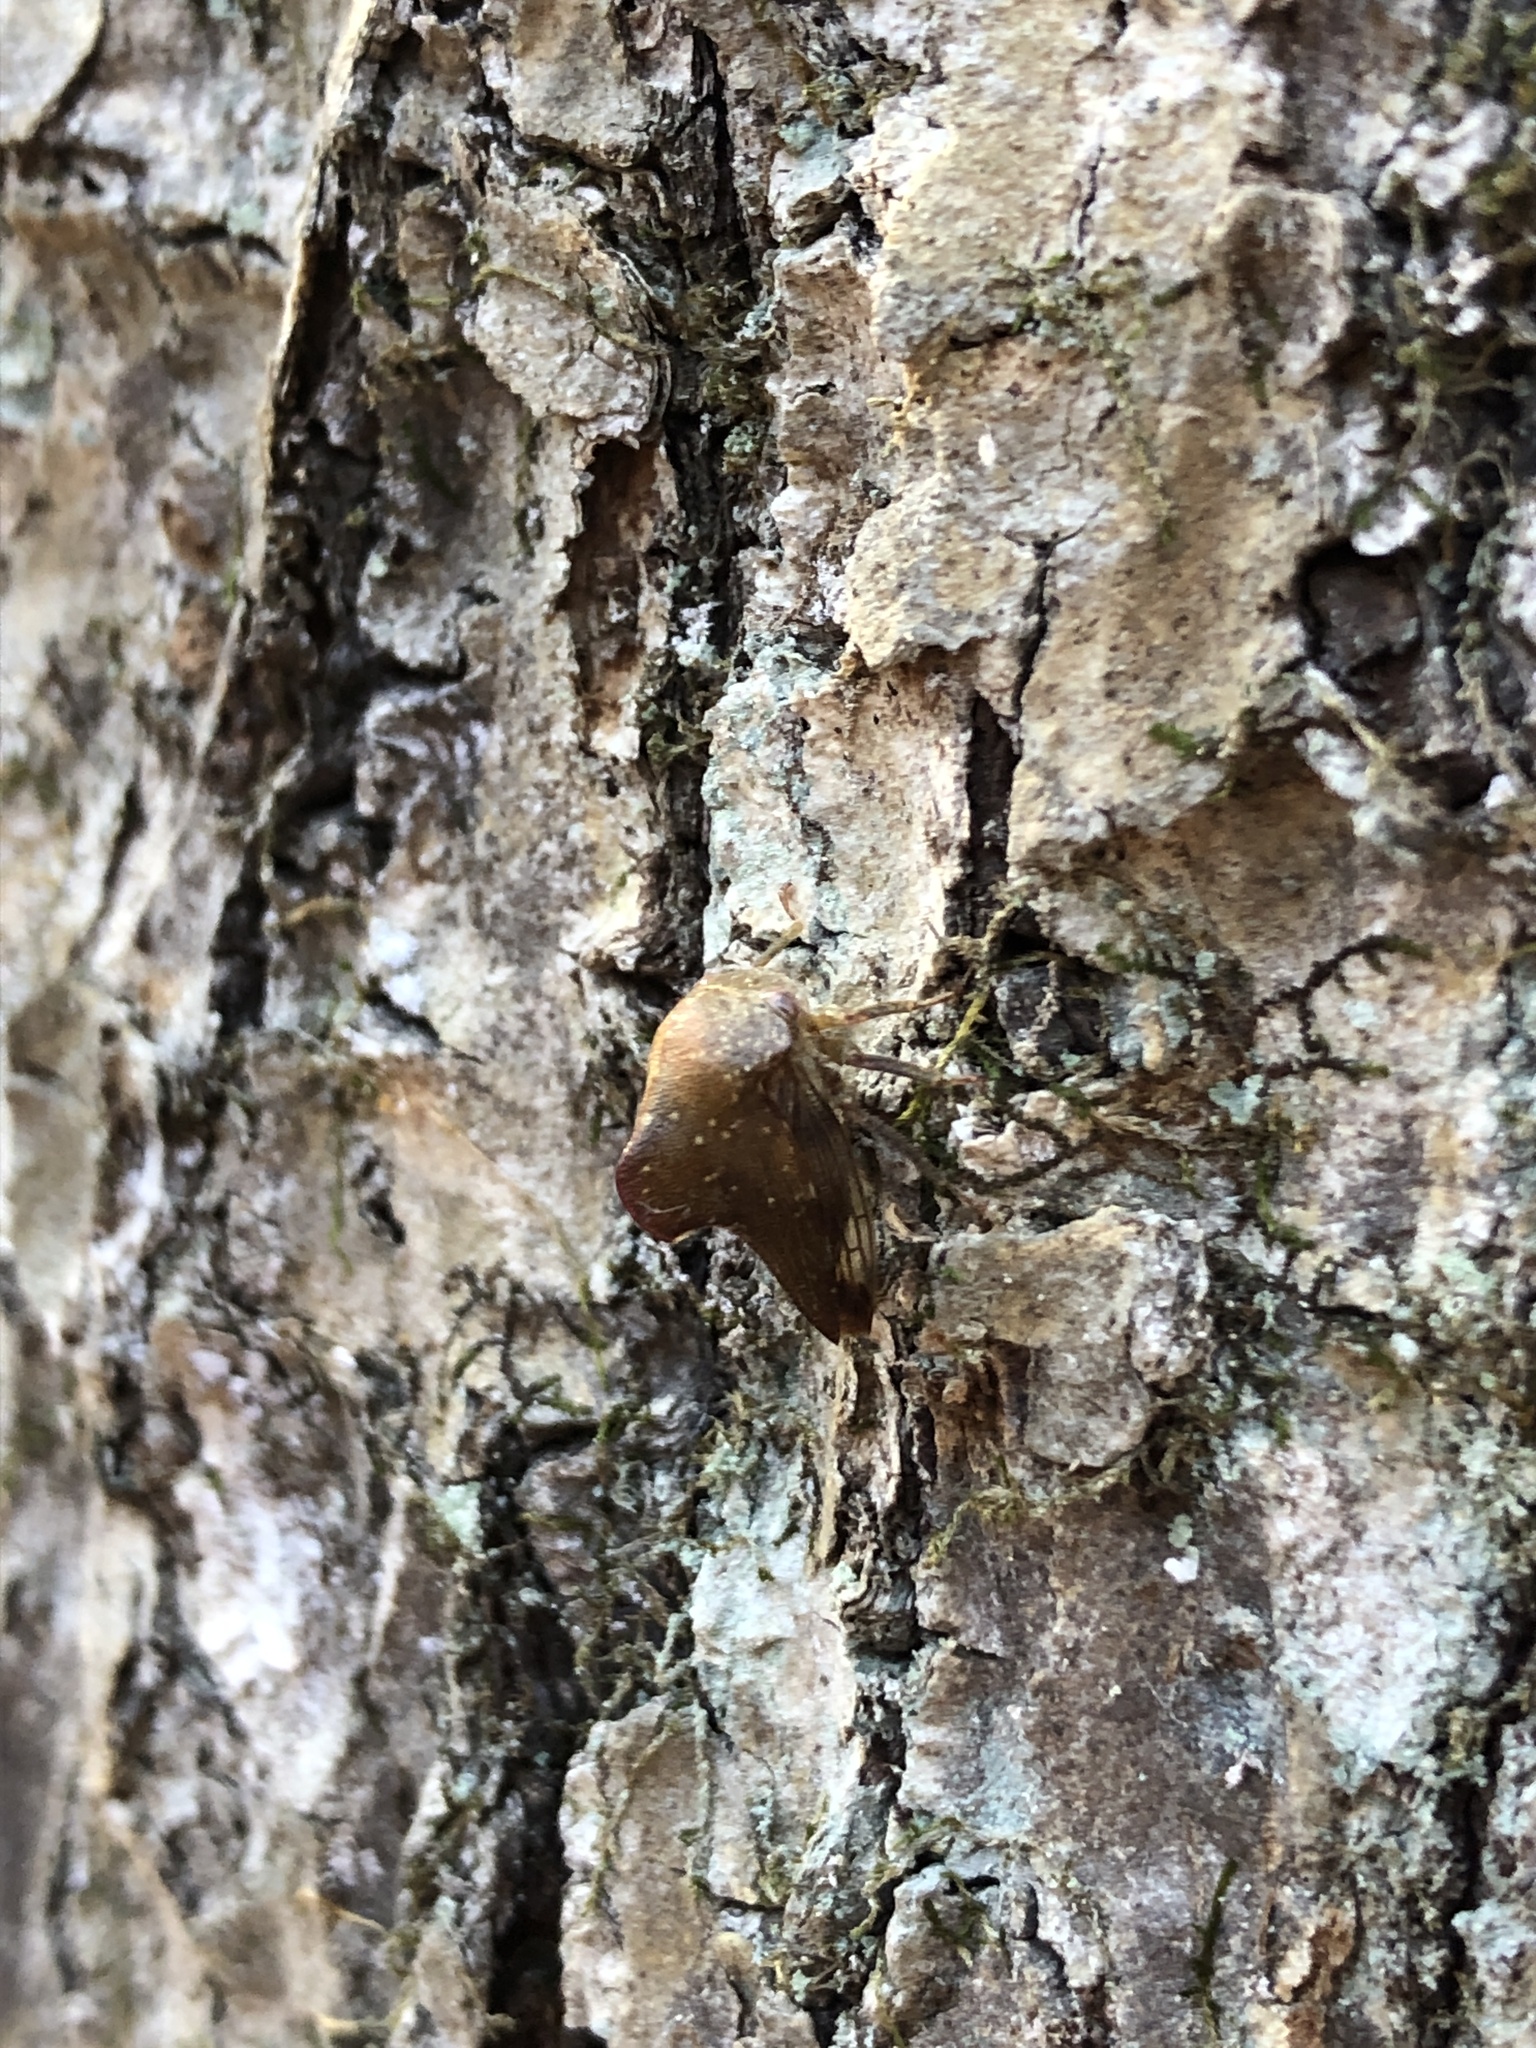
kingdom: Animalia
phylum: Arthropoda
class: Insecta
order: Hemiptera
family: Membracidae
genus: Telamona
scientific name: Telamona monticola
